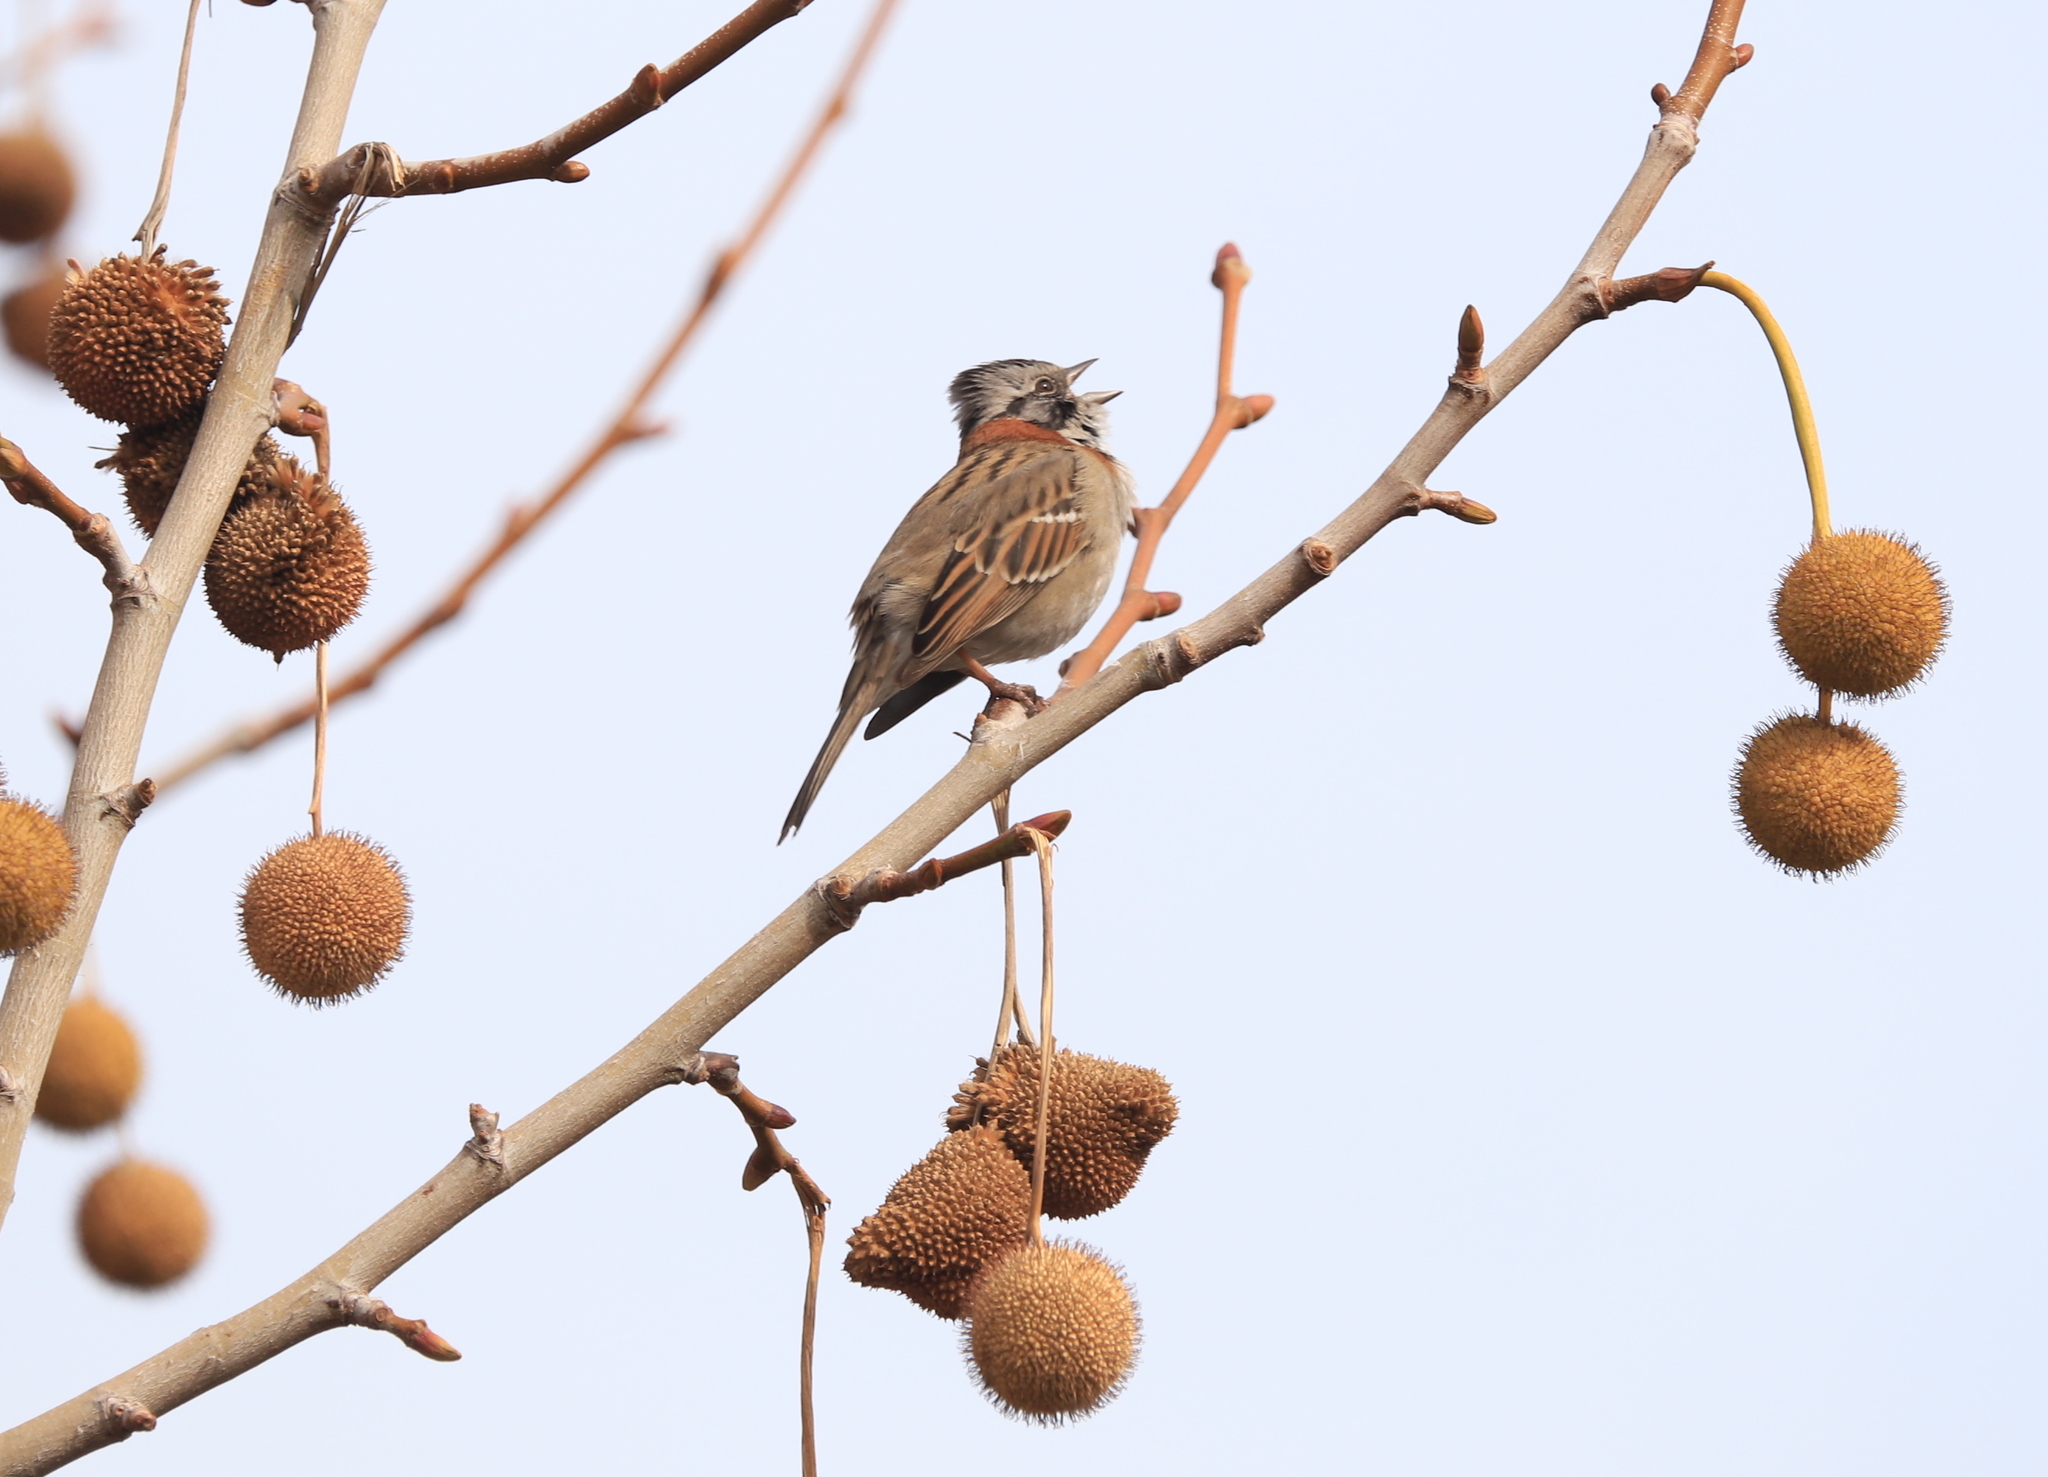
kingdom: Animalia
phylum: Chordata
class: Aves
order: Passeriformes
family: Passerellidae
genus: Zonotrichia
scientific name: Zonotrichia capensis
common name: Rufous-collared sparrow
